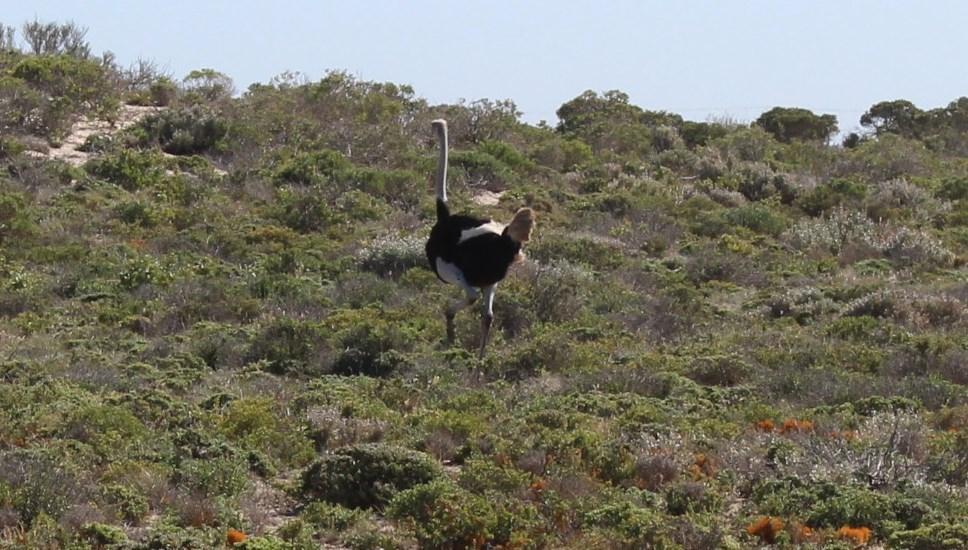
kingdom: Animalia
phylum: Chordata
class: Aves
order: Struthioniformes
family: Struthionidae
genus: Struthio
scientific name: Struthio camelus
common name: Common ostrich
